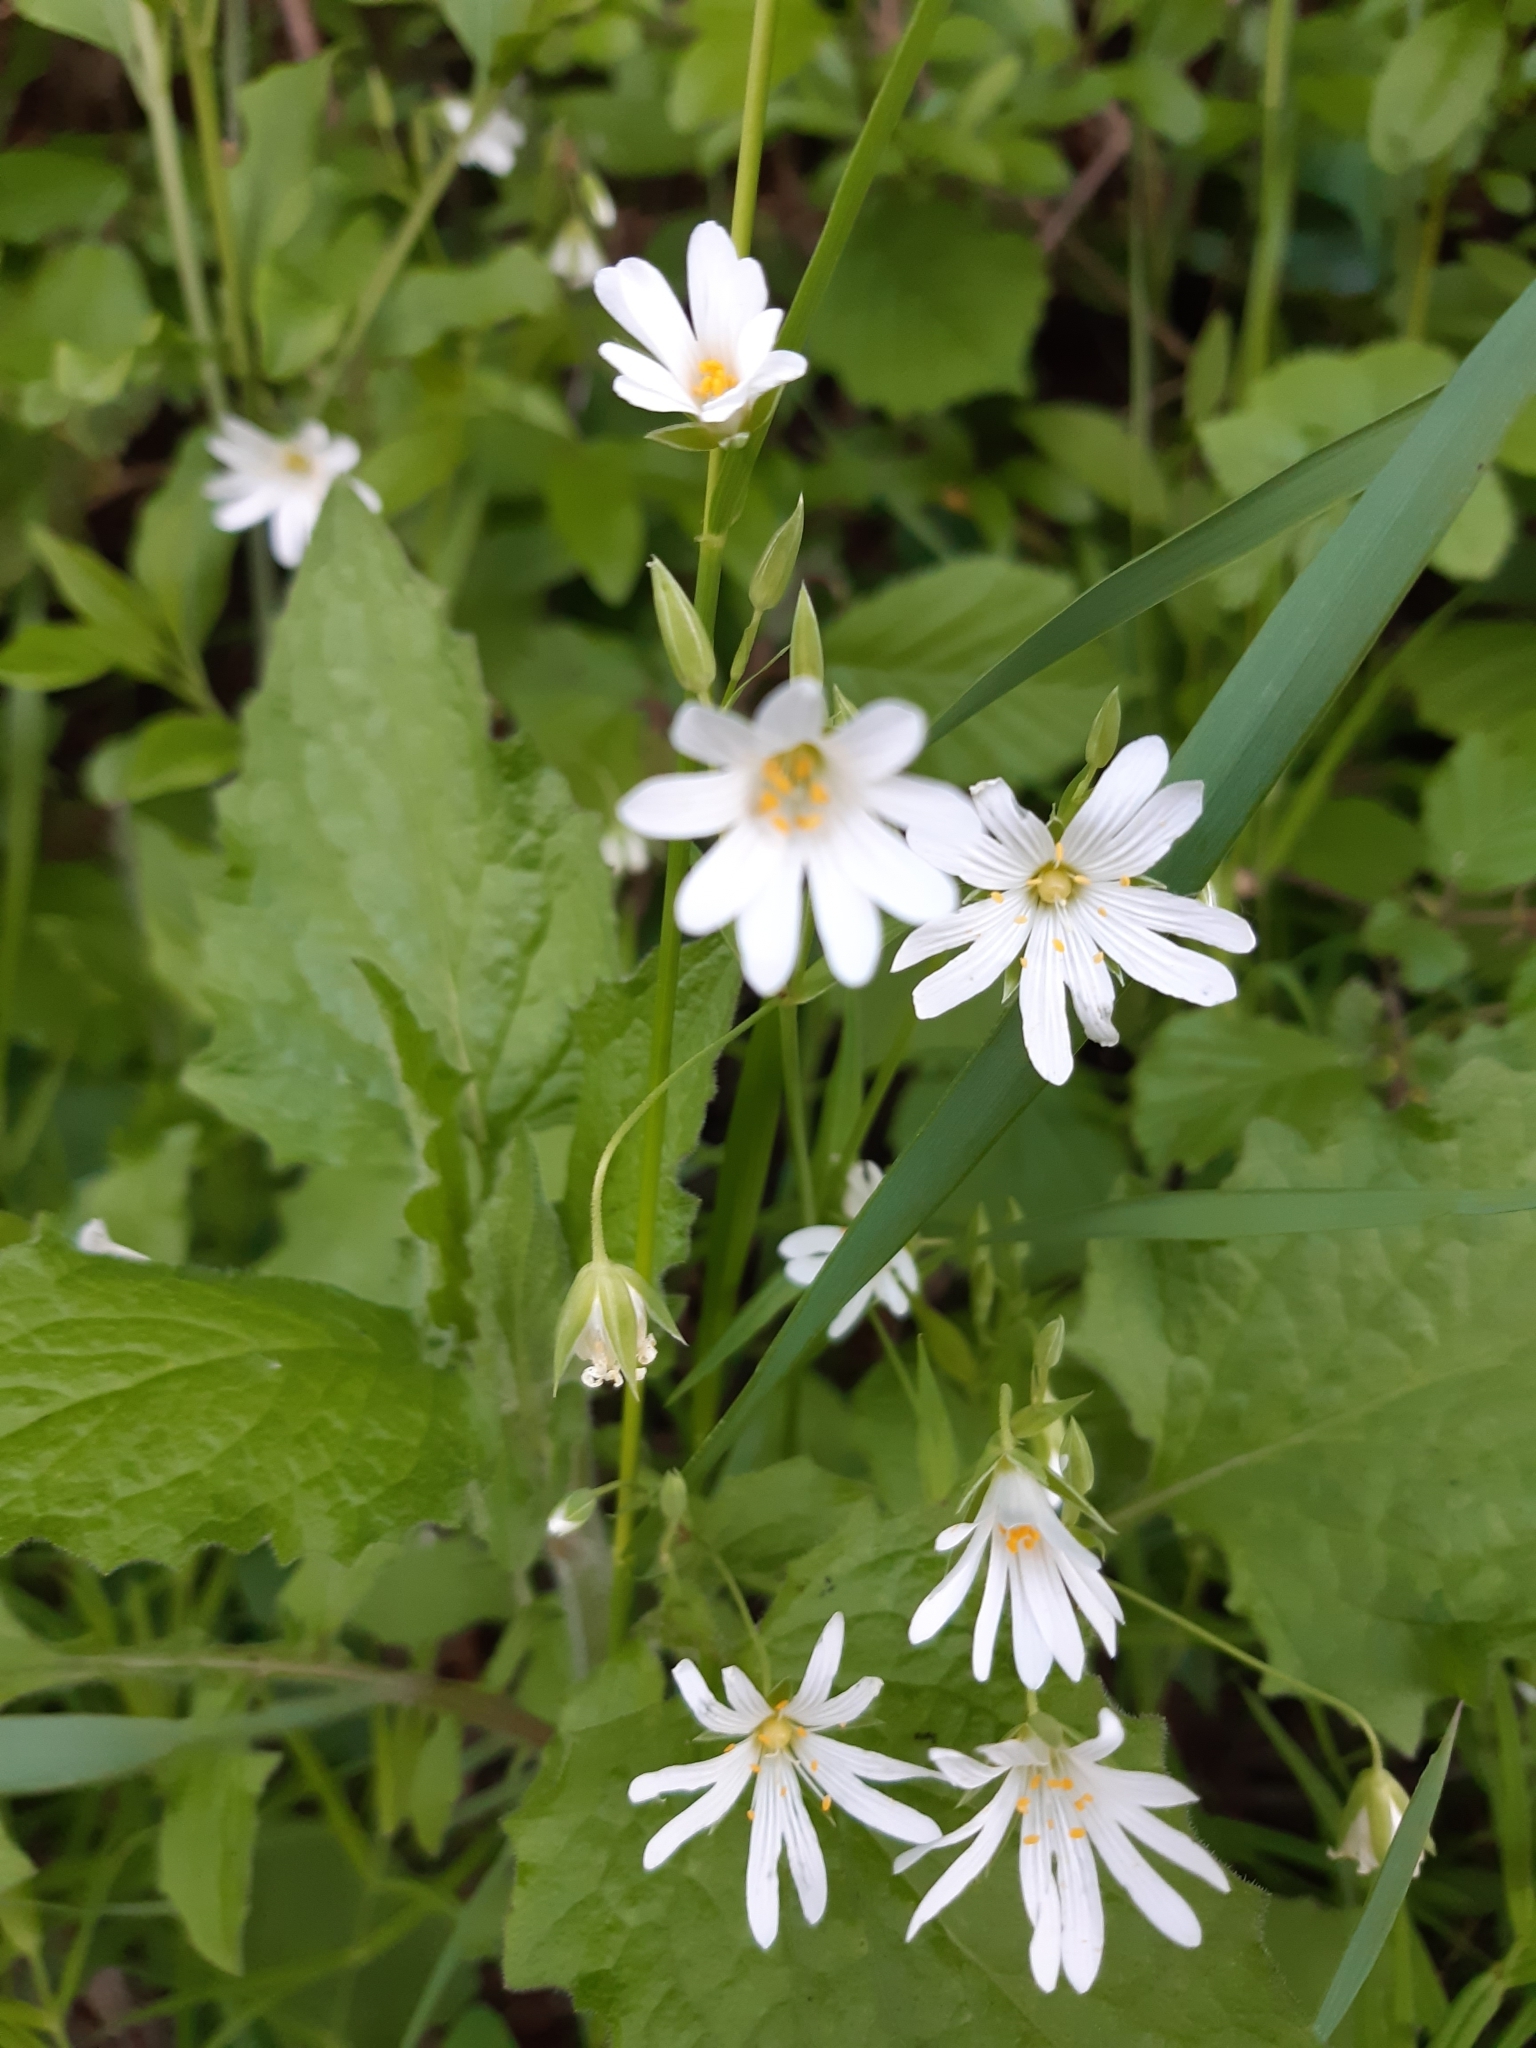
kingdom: Plantae
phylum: Tracheophyta
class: Magnoliopsida
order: Caryophyllales
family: Caryophyllaceae
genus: Rabelera
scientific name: Rabelera holostea
